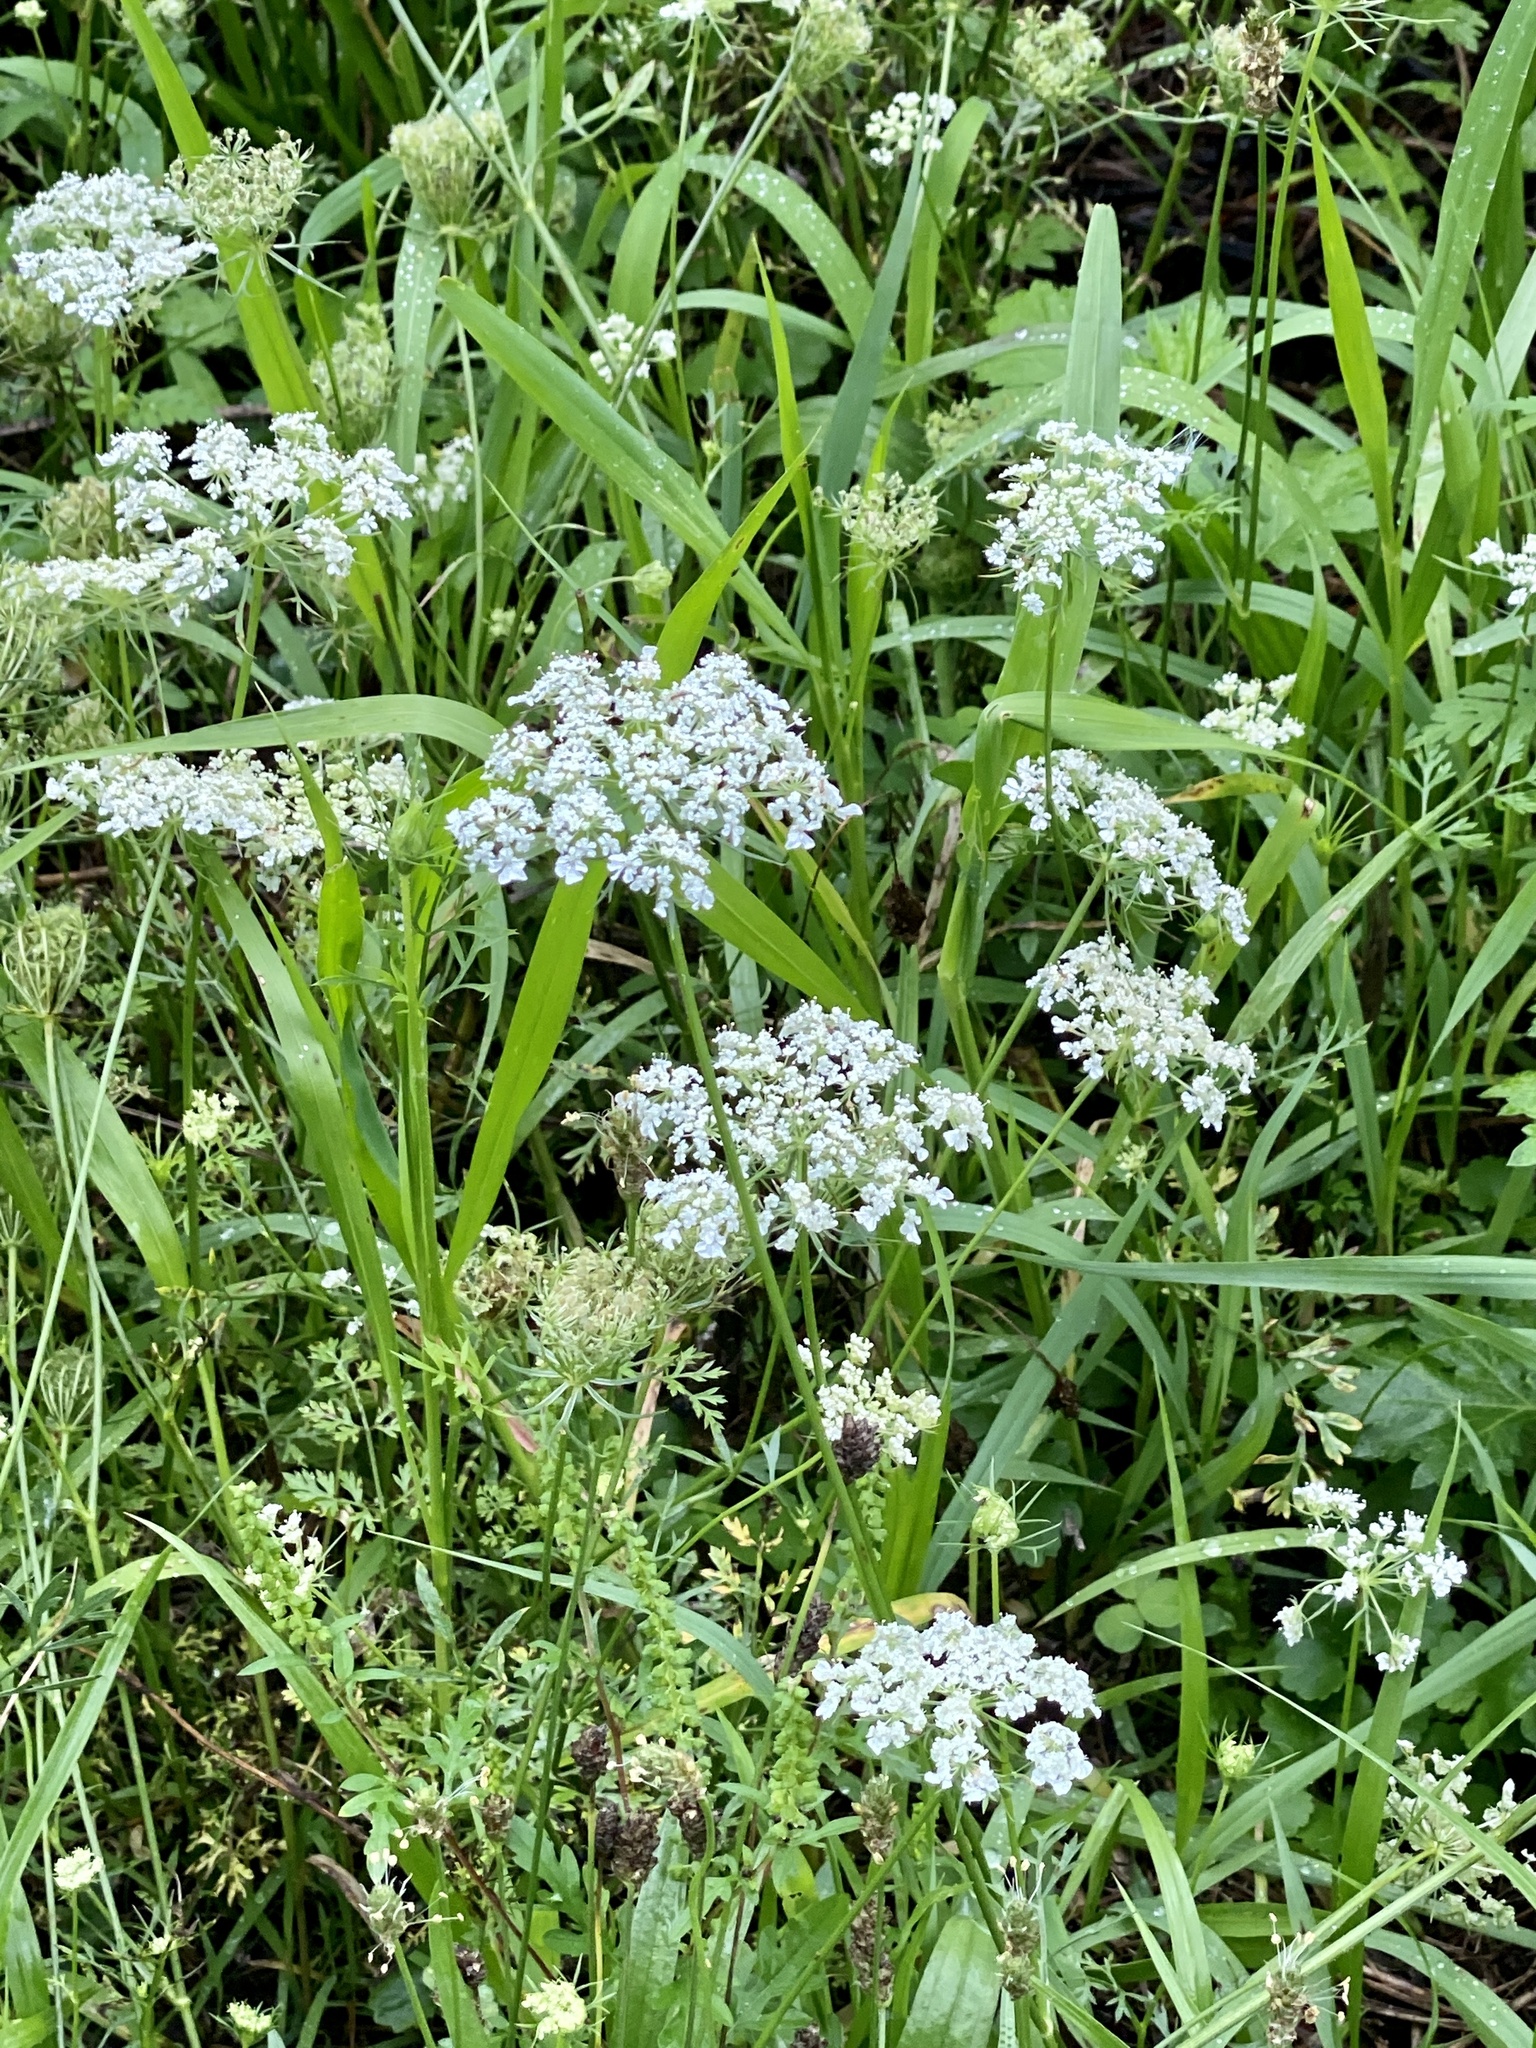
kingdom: Plantae
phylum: Tracheophyta
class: Magnoliopsida
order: Apiales
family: Apiaceae
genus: Daucus
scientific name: Daucus carota
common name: Wild carrot
